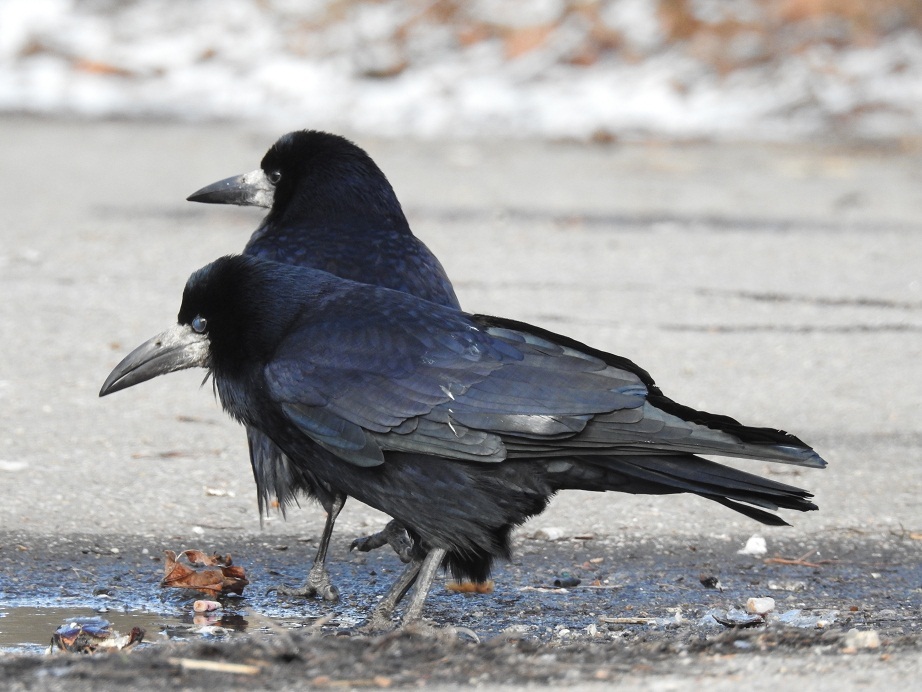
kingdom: Animalia
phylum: Chordata
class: Aves
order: Passeriformes
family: Corvidae
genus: Corvus
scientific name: Corvus frugilegus
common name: Rook
